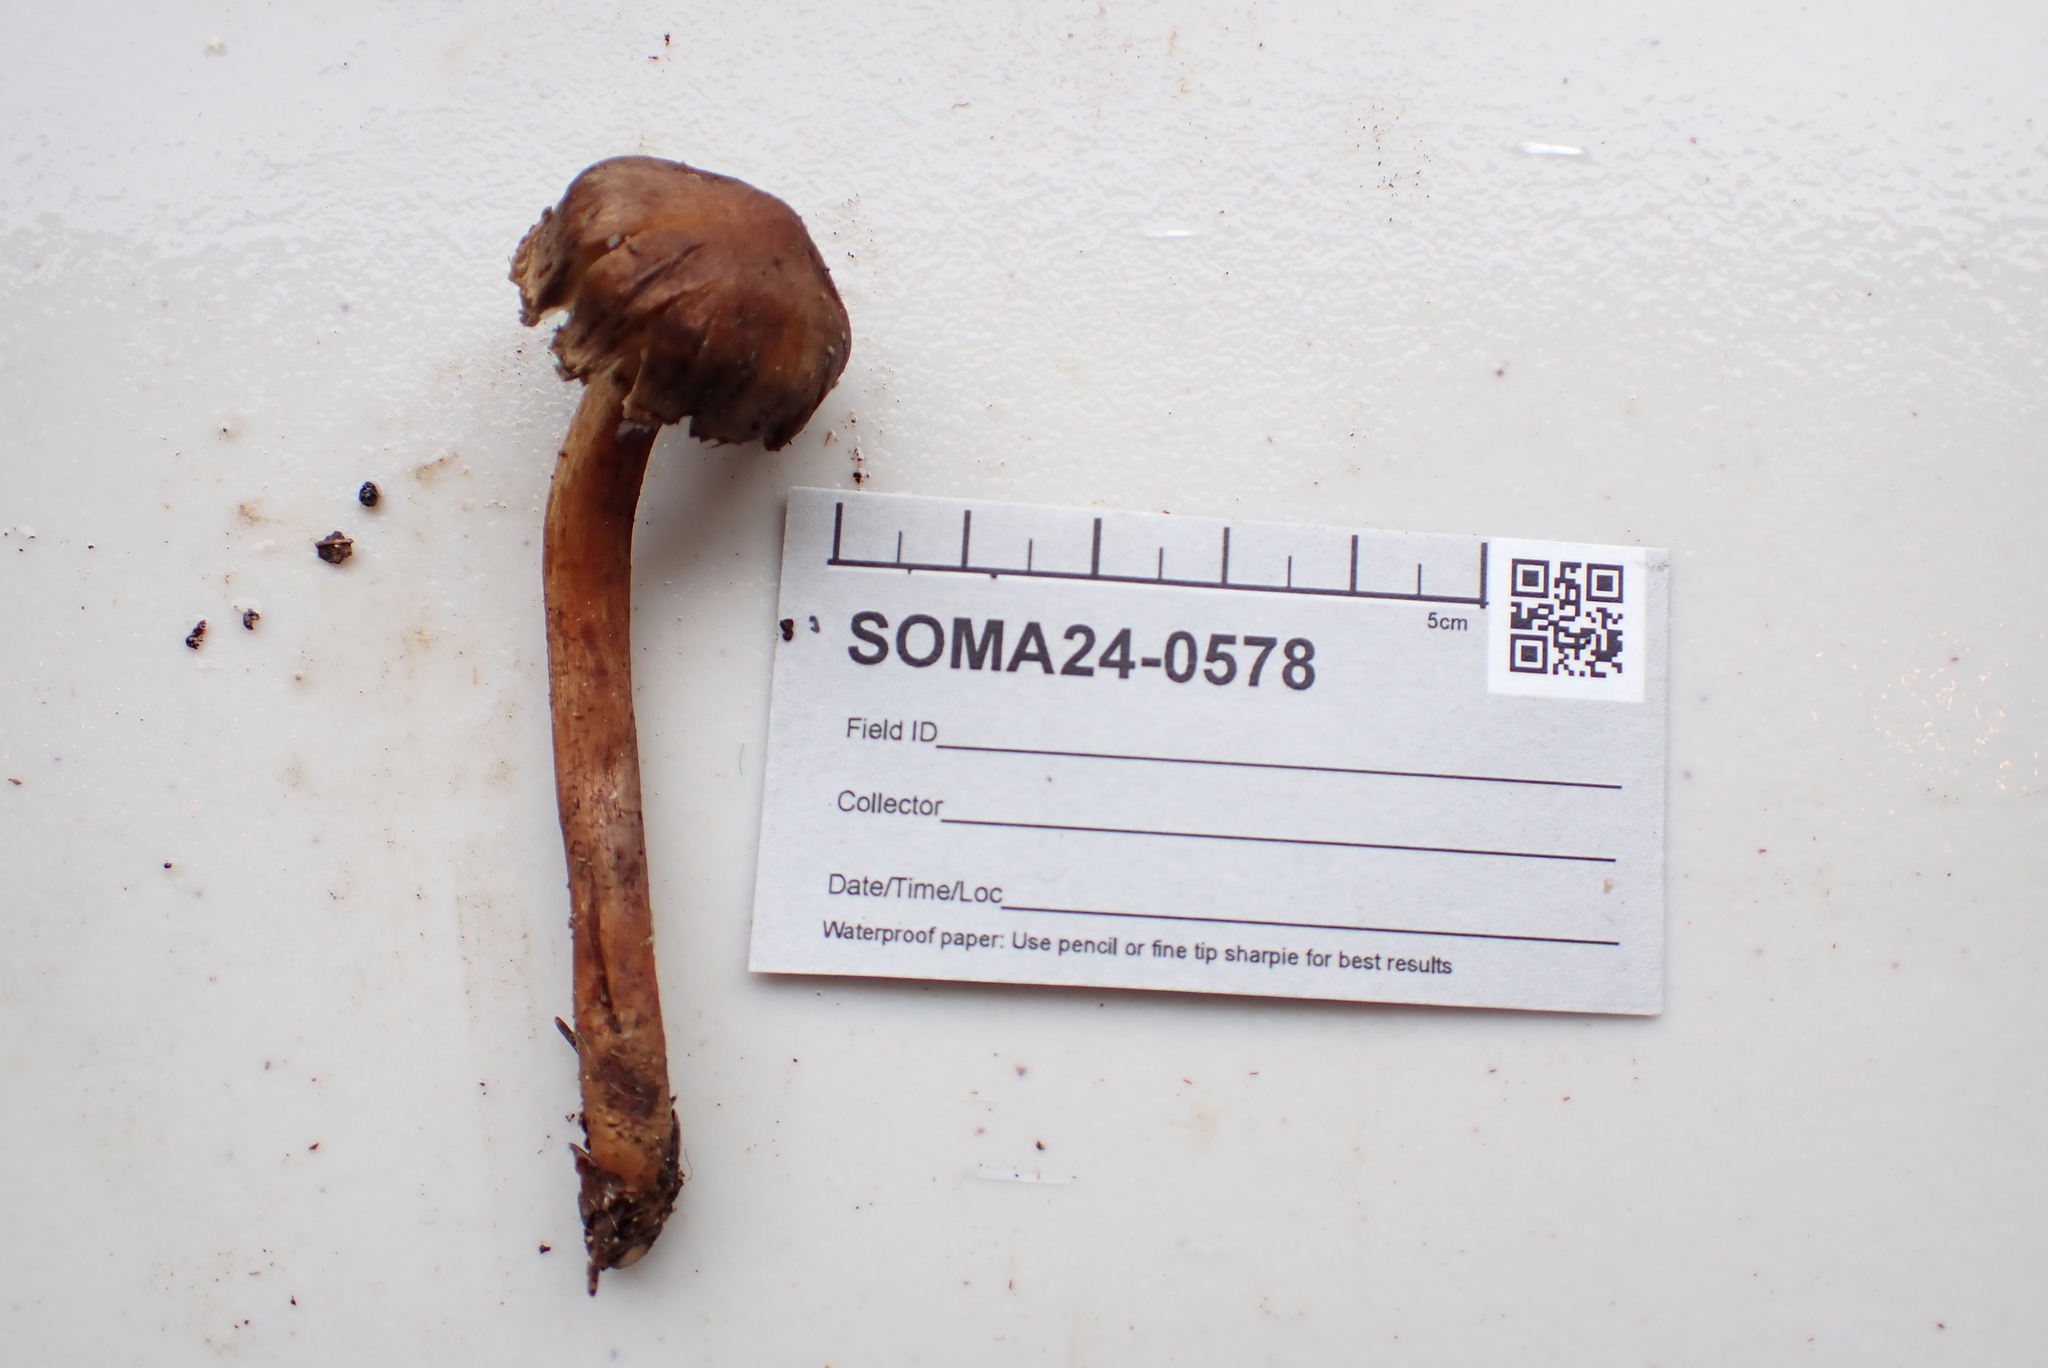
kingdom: Fungi
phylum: Basidiomycota
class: Agaricomycetes
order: Agaricales
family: Tricholomataceae
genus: Tricholoma
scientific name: Tricholoma aurantio-olivaceum
